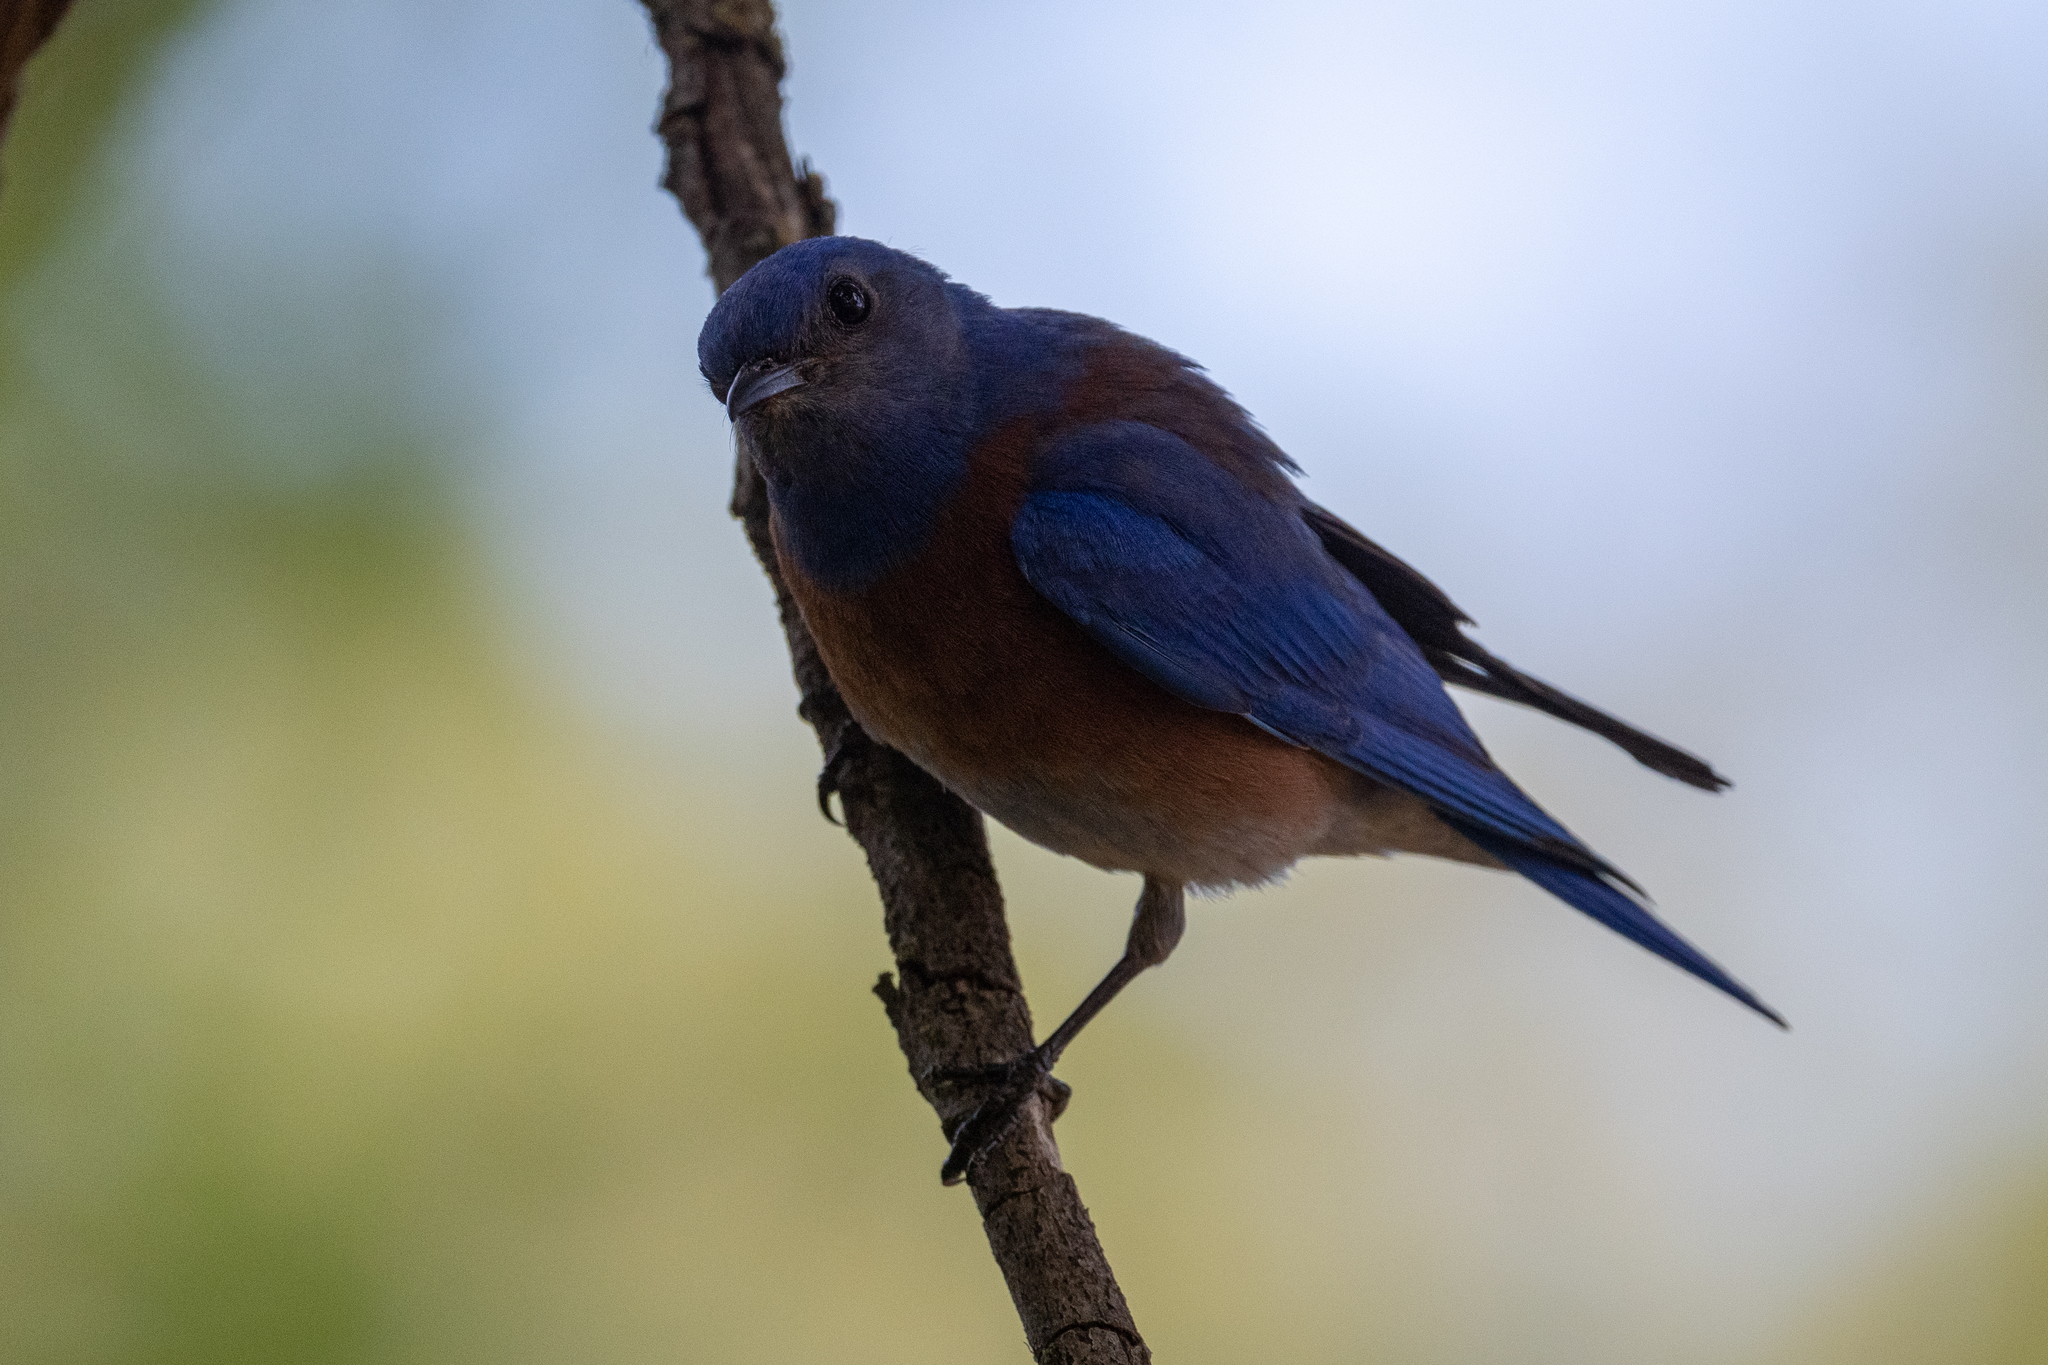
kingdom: Animalia
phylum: Chordata
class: Aves
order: Passeriformes
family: Turdidae
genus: Sialia
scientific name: Sialia mexicana
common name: Western bluebird
